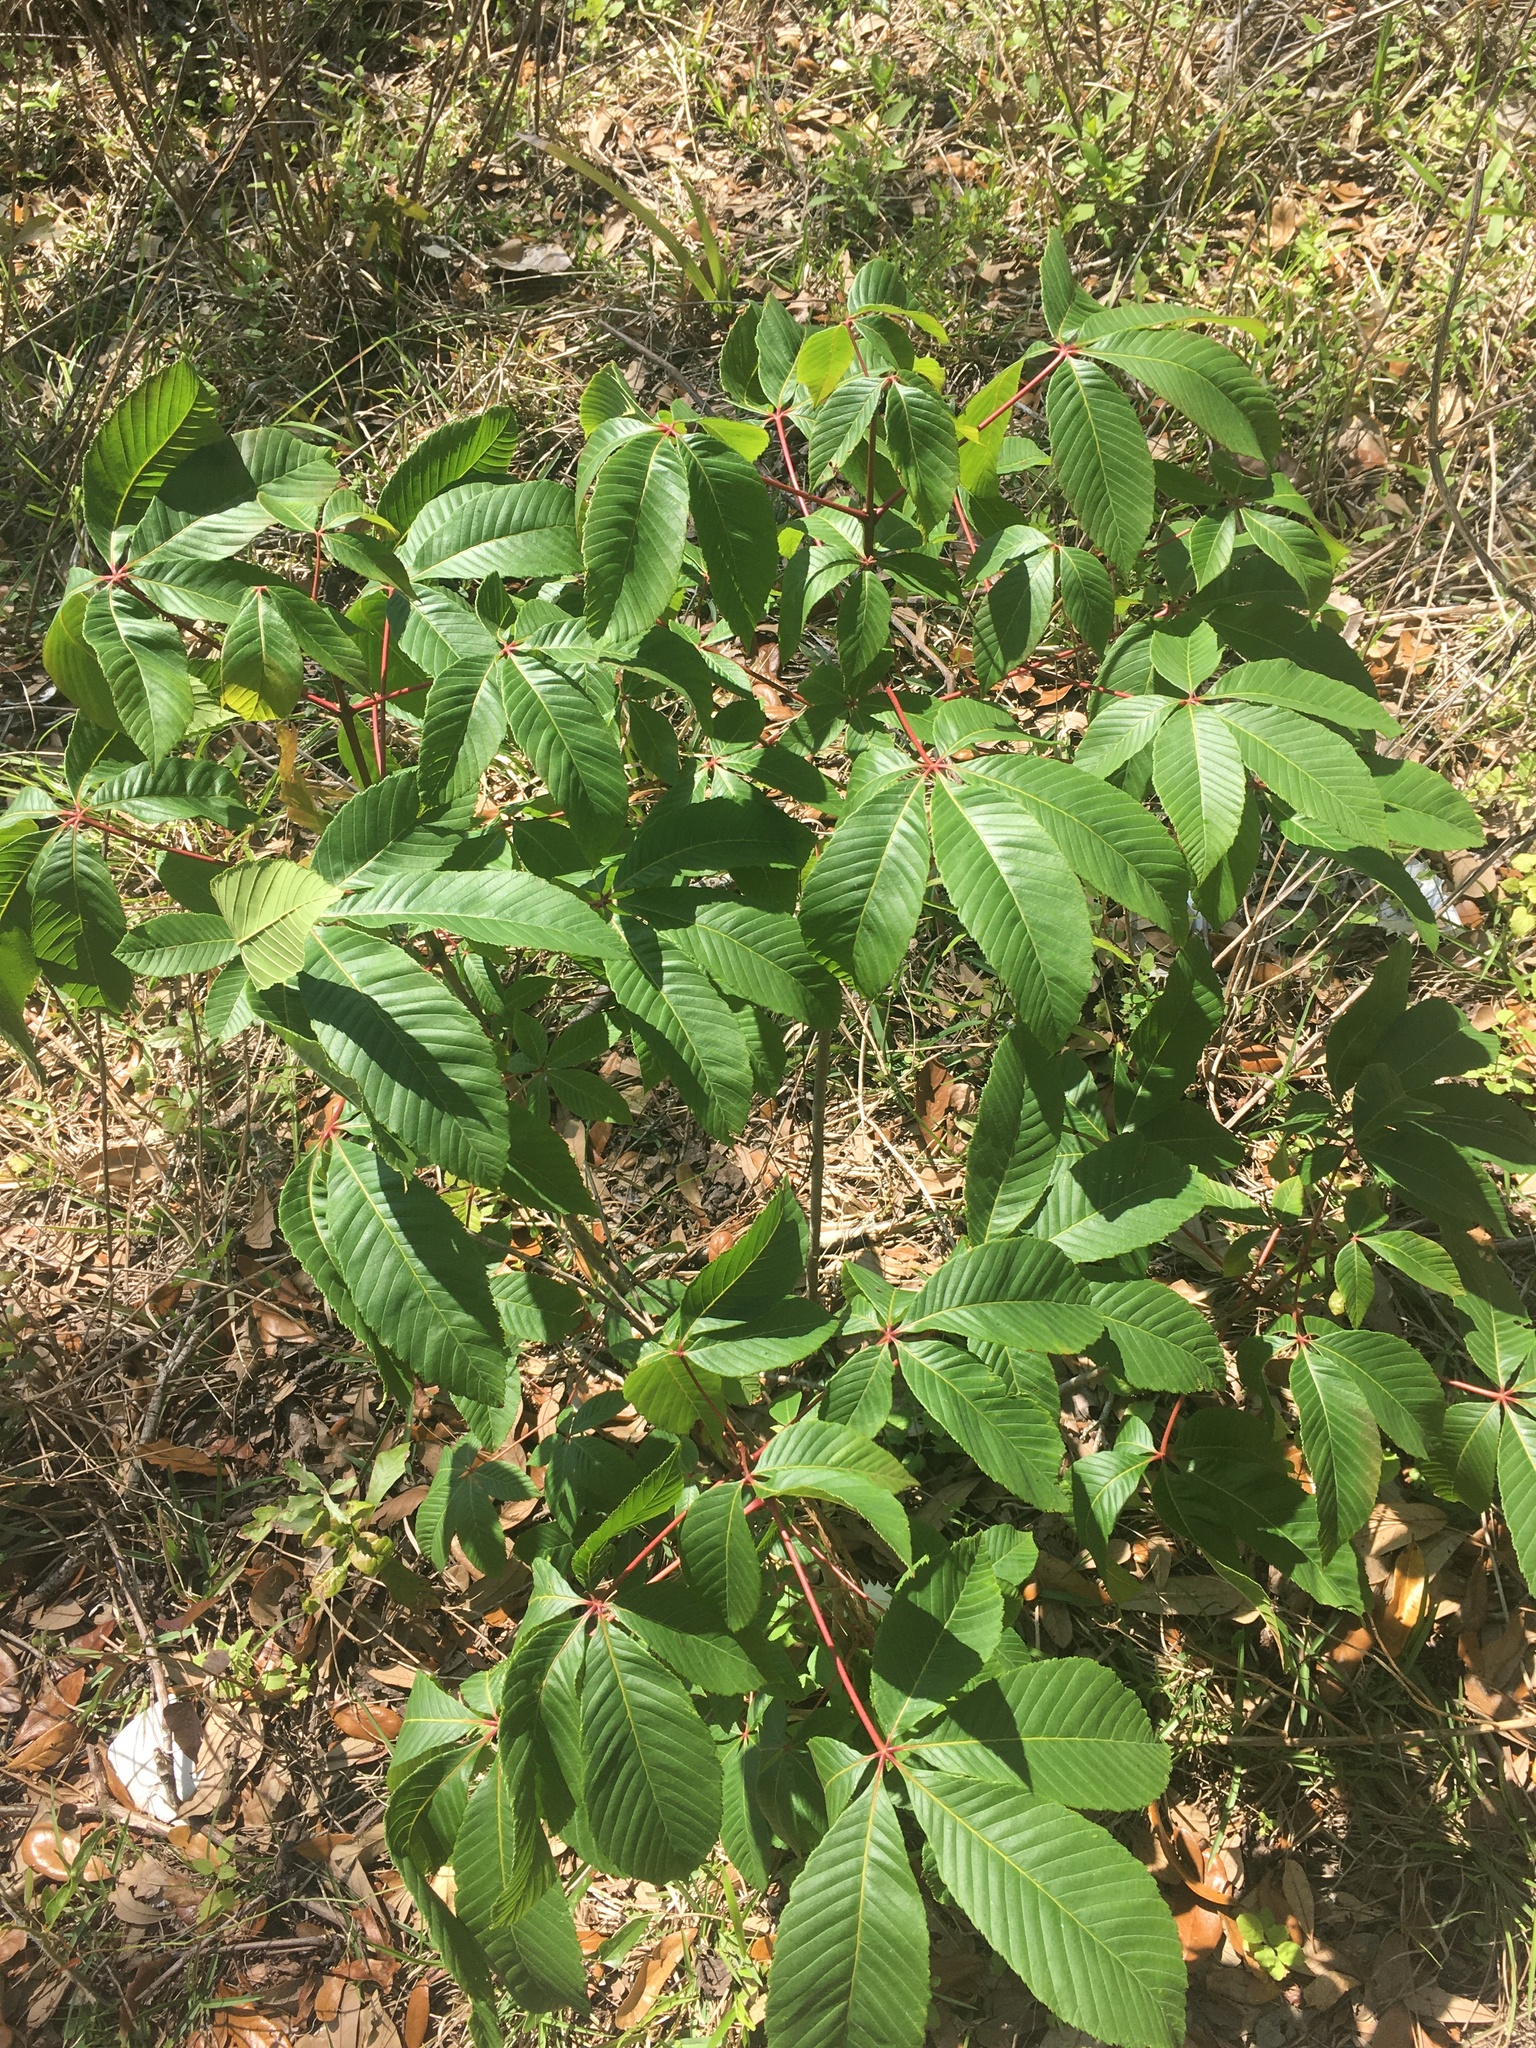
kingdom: Plantae
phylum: Tracheophyta
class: Magnoliopsida
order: Sapindales
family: Sapindaceae
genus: Aesculus
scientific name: Aesculus pavia
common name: Red buckeye
